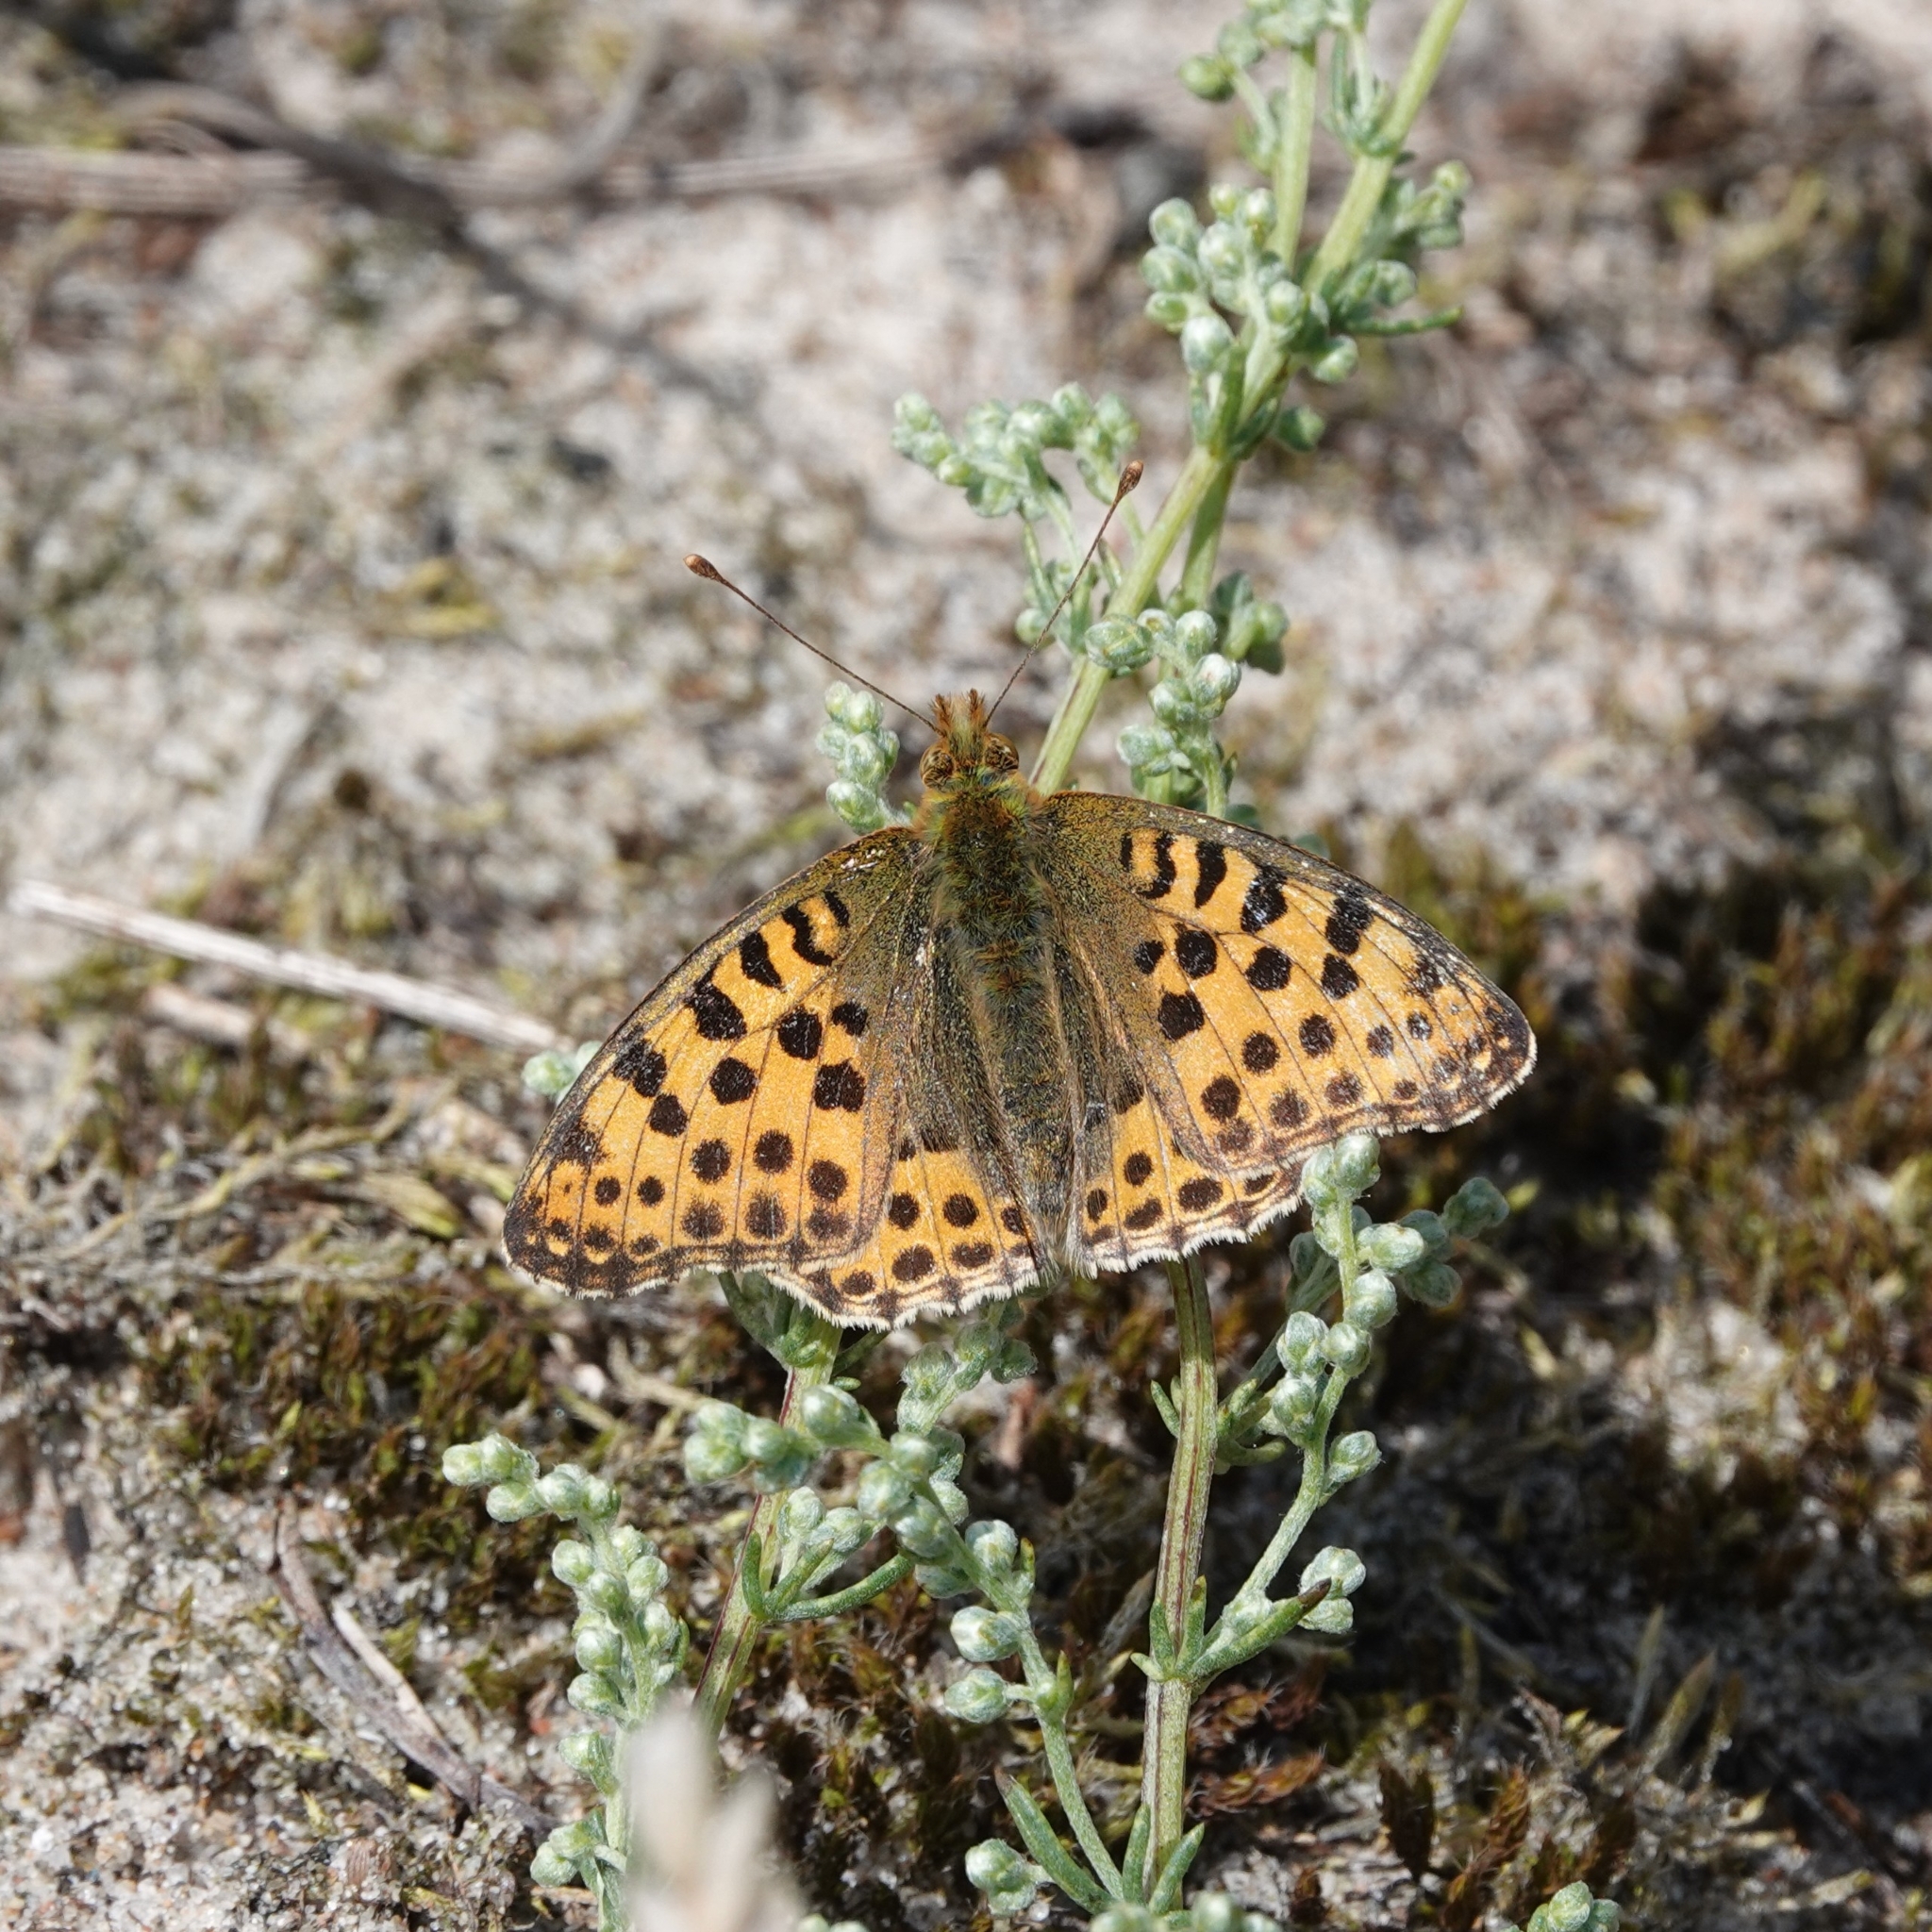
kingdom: Animalia
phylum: Arthropoda
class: Insecta
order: Lepidoptera
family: Nymphalidae
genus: Issoria
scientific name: Issoria lathonia
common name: Queen of spain fritillary
